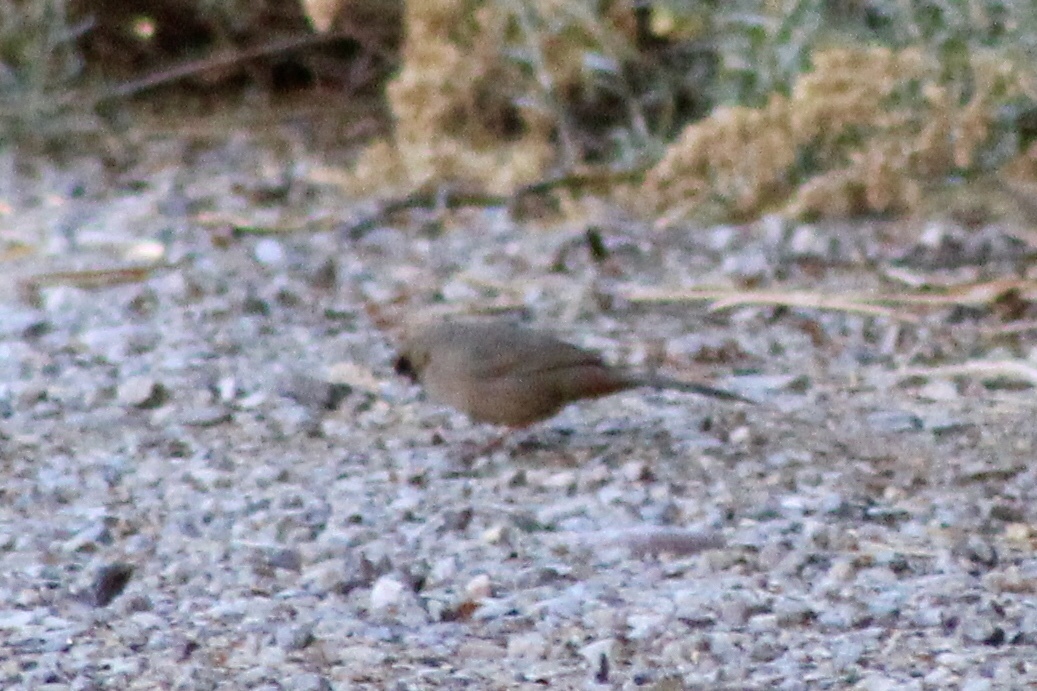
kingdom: Animalia
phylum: Chordata
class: Aves
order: Passeriformes
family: Passerellidae
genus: Melozone
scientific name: Melozone aberti
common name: Abert's towhee
